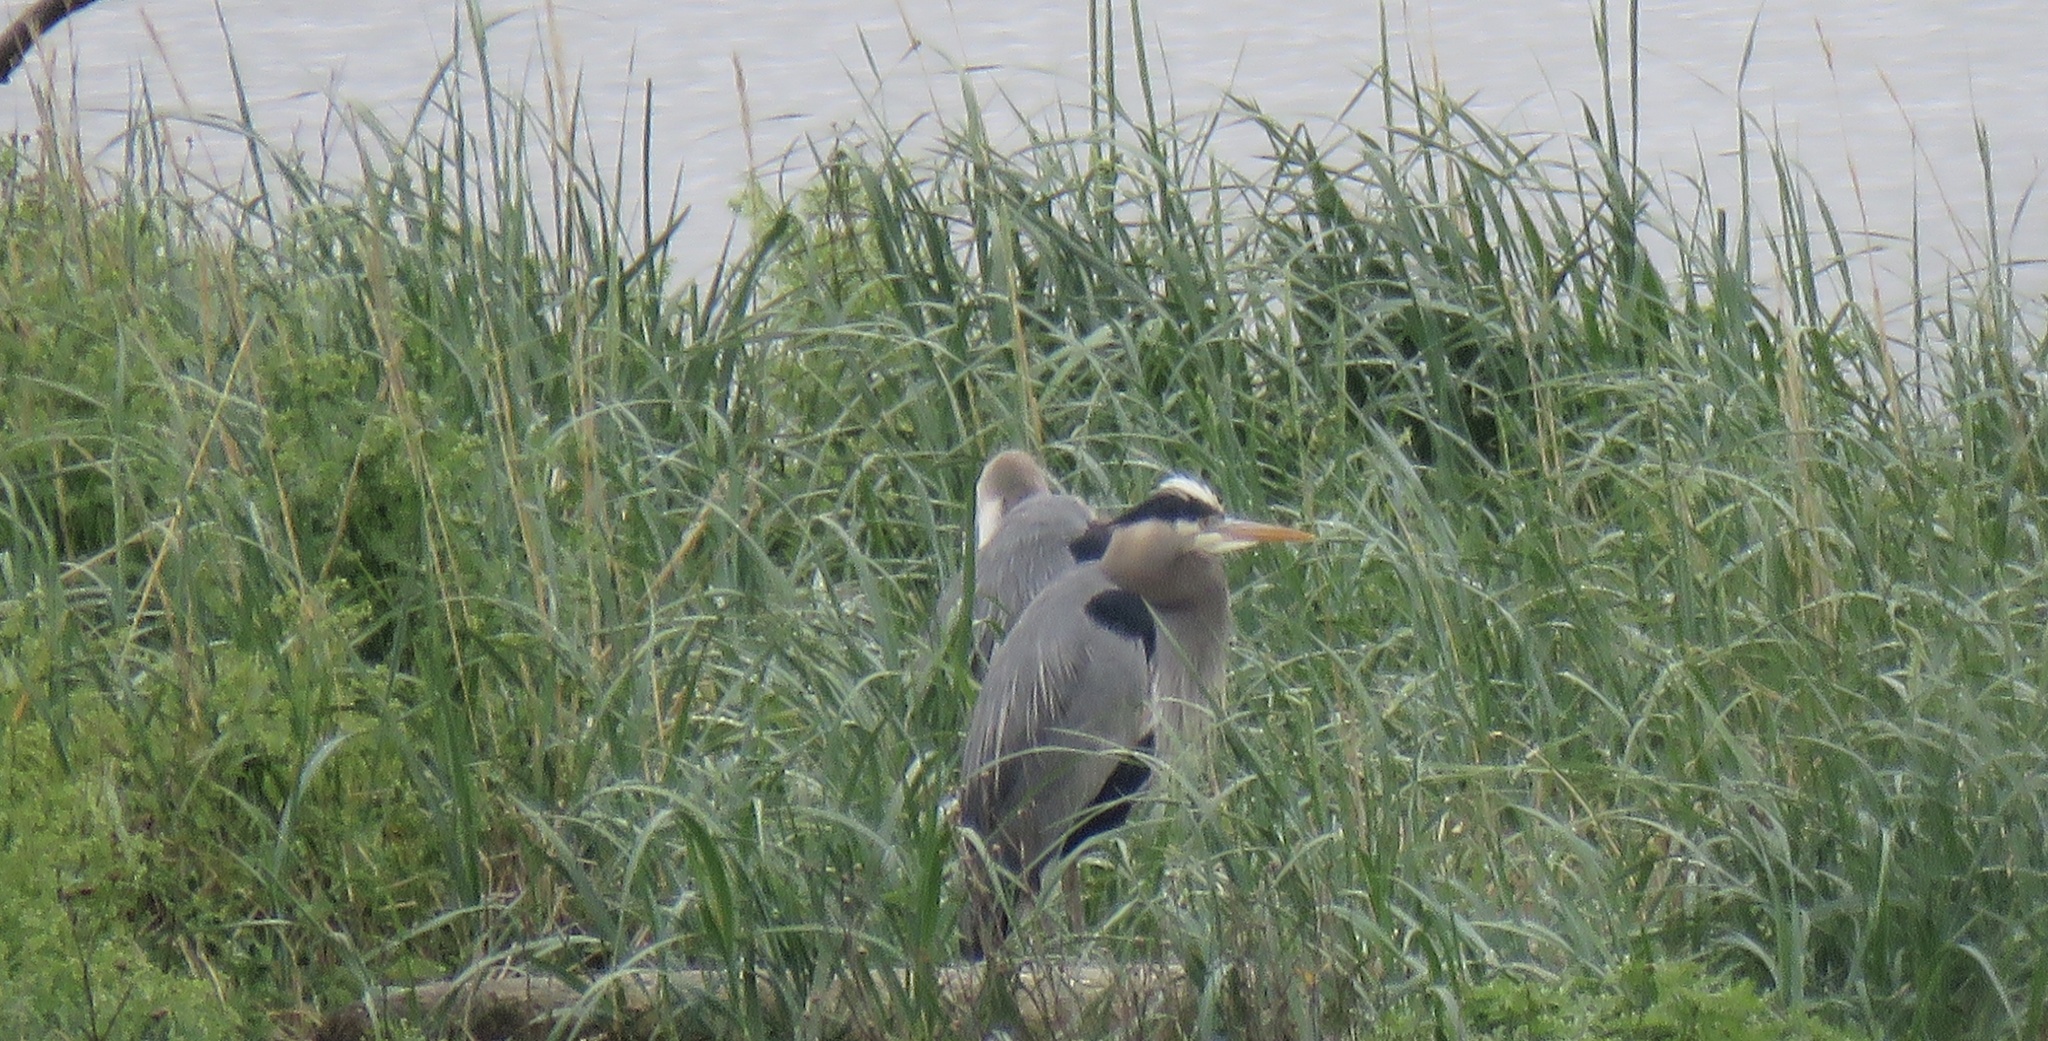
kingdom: Animalia
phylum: Chordata
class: Aves
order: Pelecaniformes
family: Ardeidae
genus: Ardea
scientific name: Ardea herodias
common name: Great blue heron
